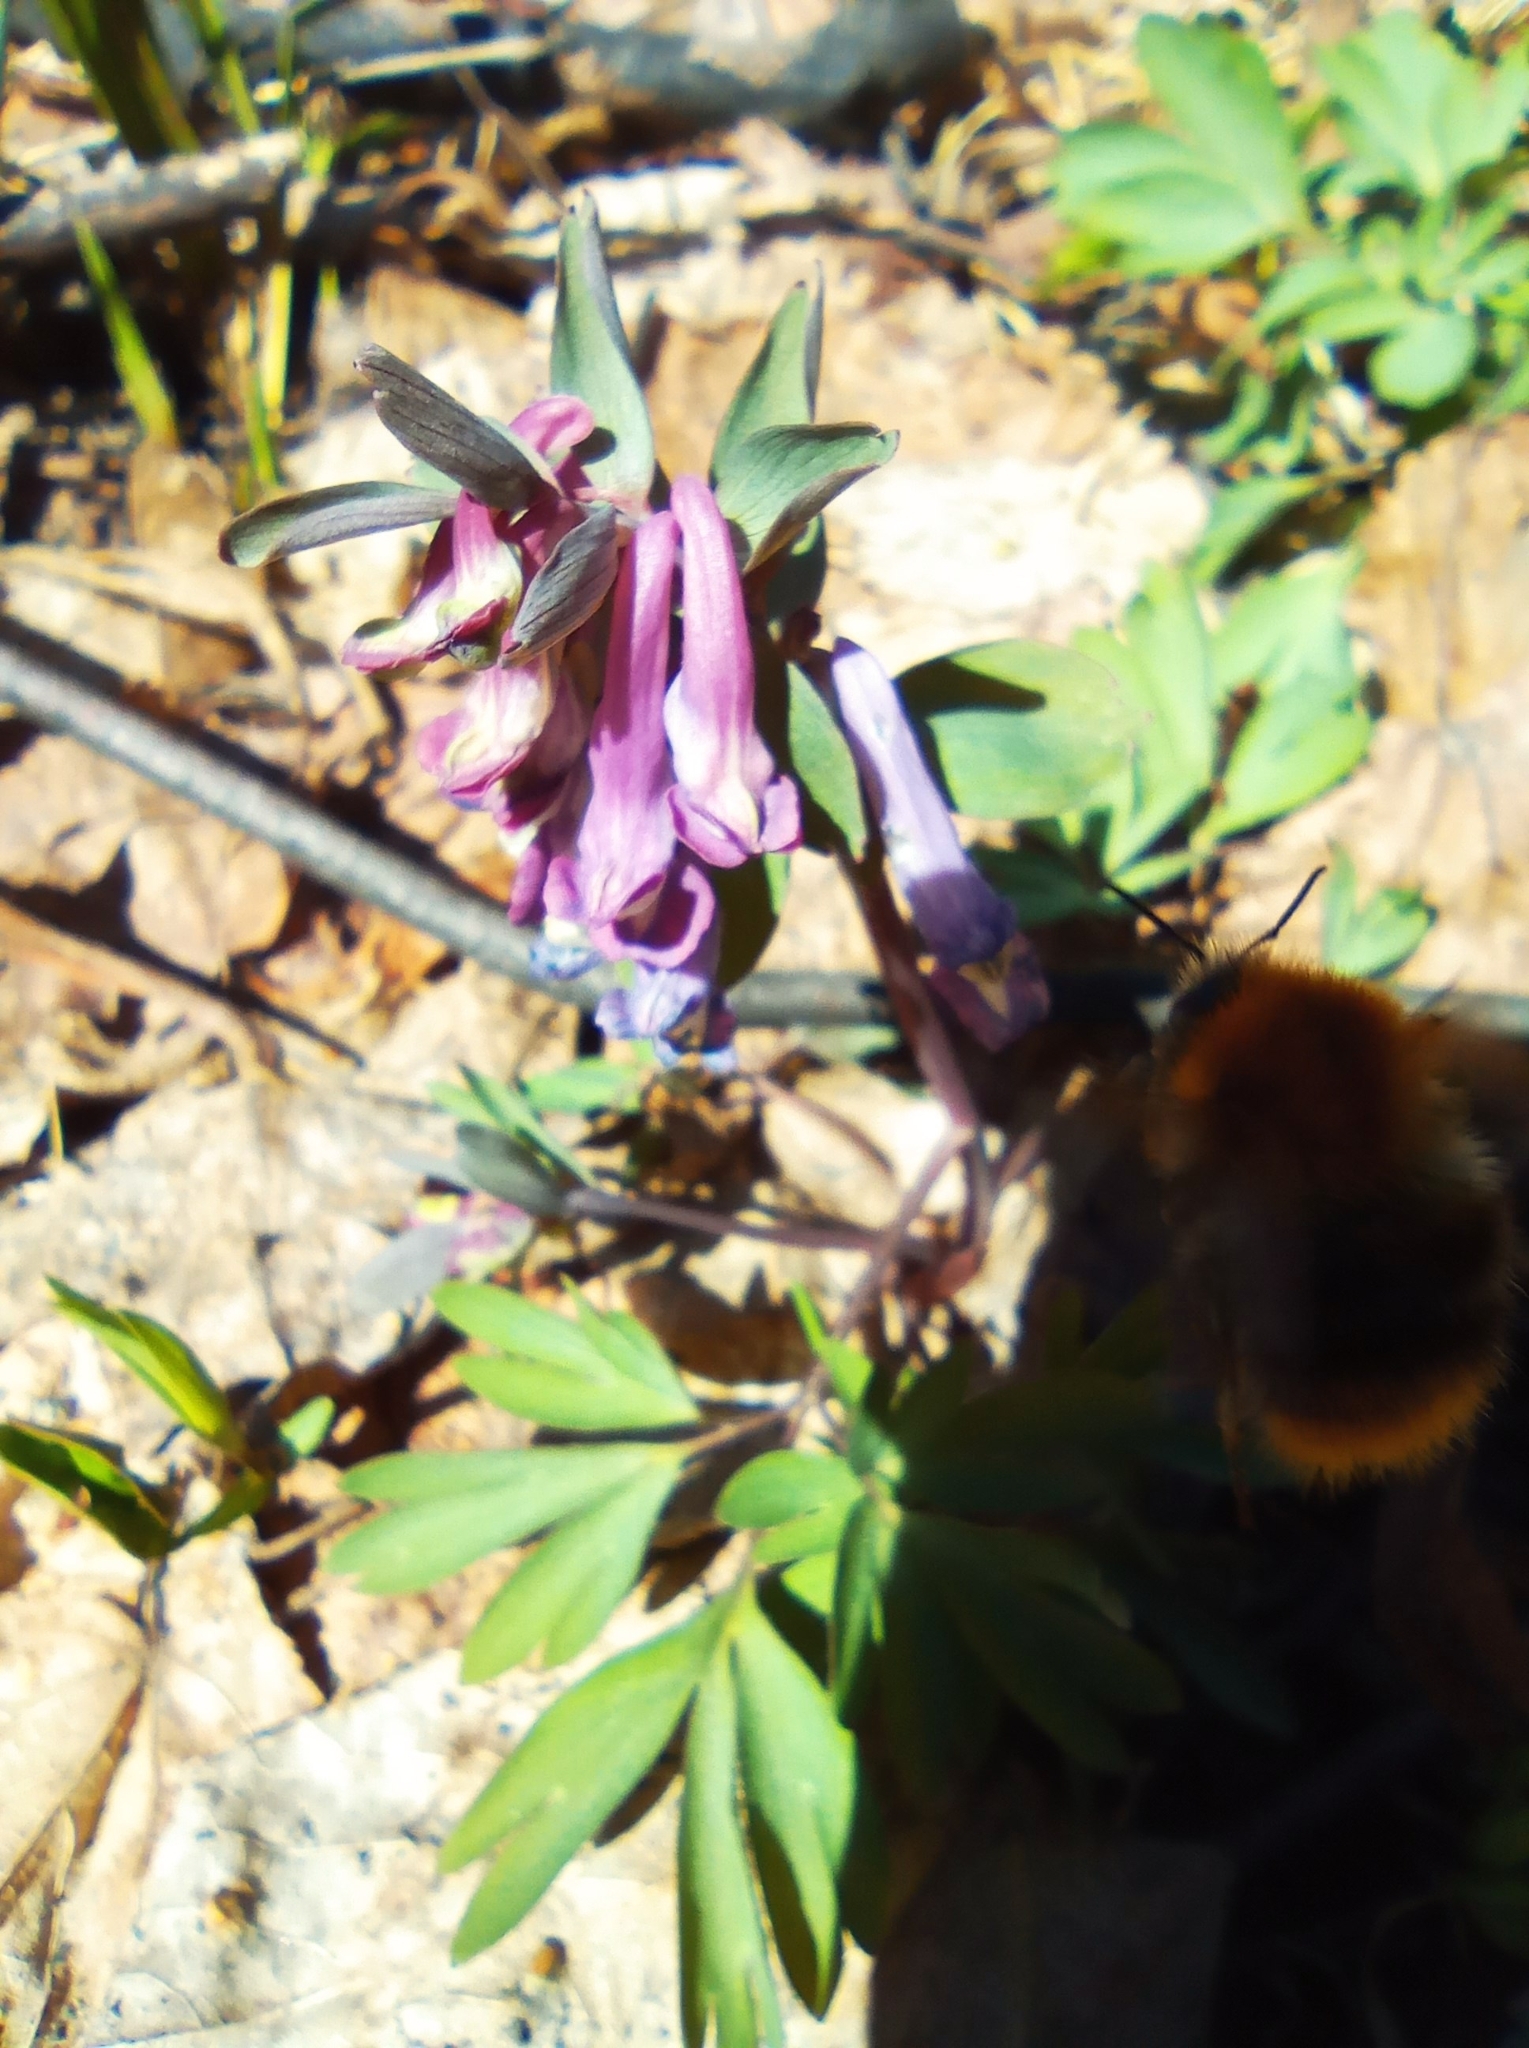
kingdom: Plantae
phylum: Tracheophyta
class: Magnoliopsida
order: Ranunculales
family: Papaveraceae
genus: Corydalis
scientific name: Corydalis solida
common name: Bird-in-a-bush
